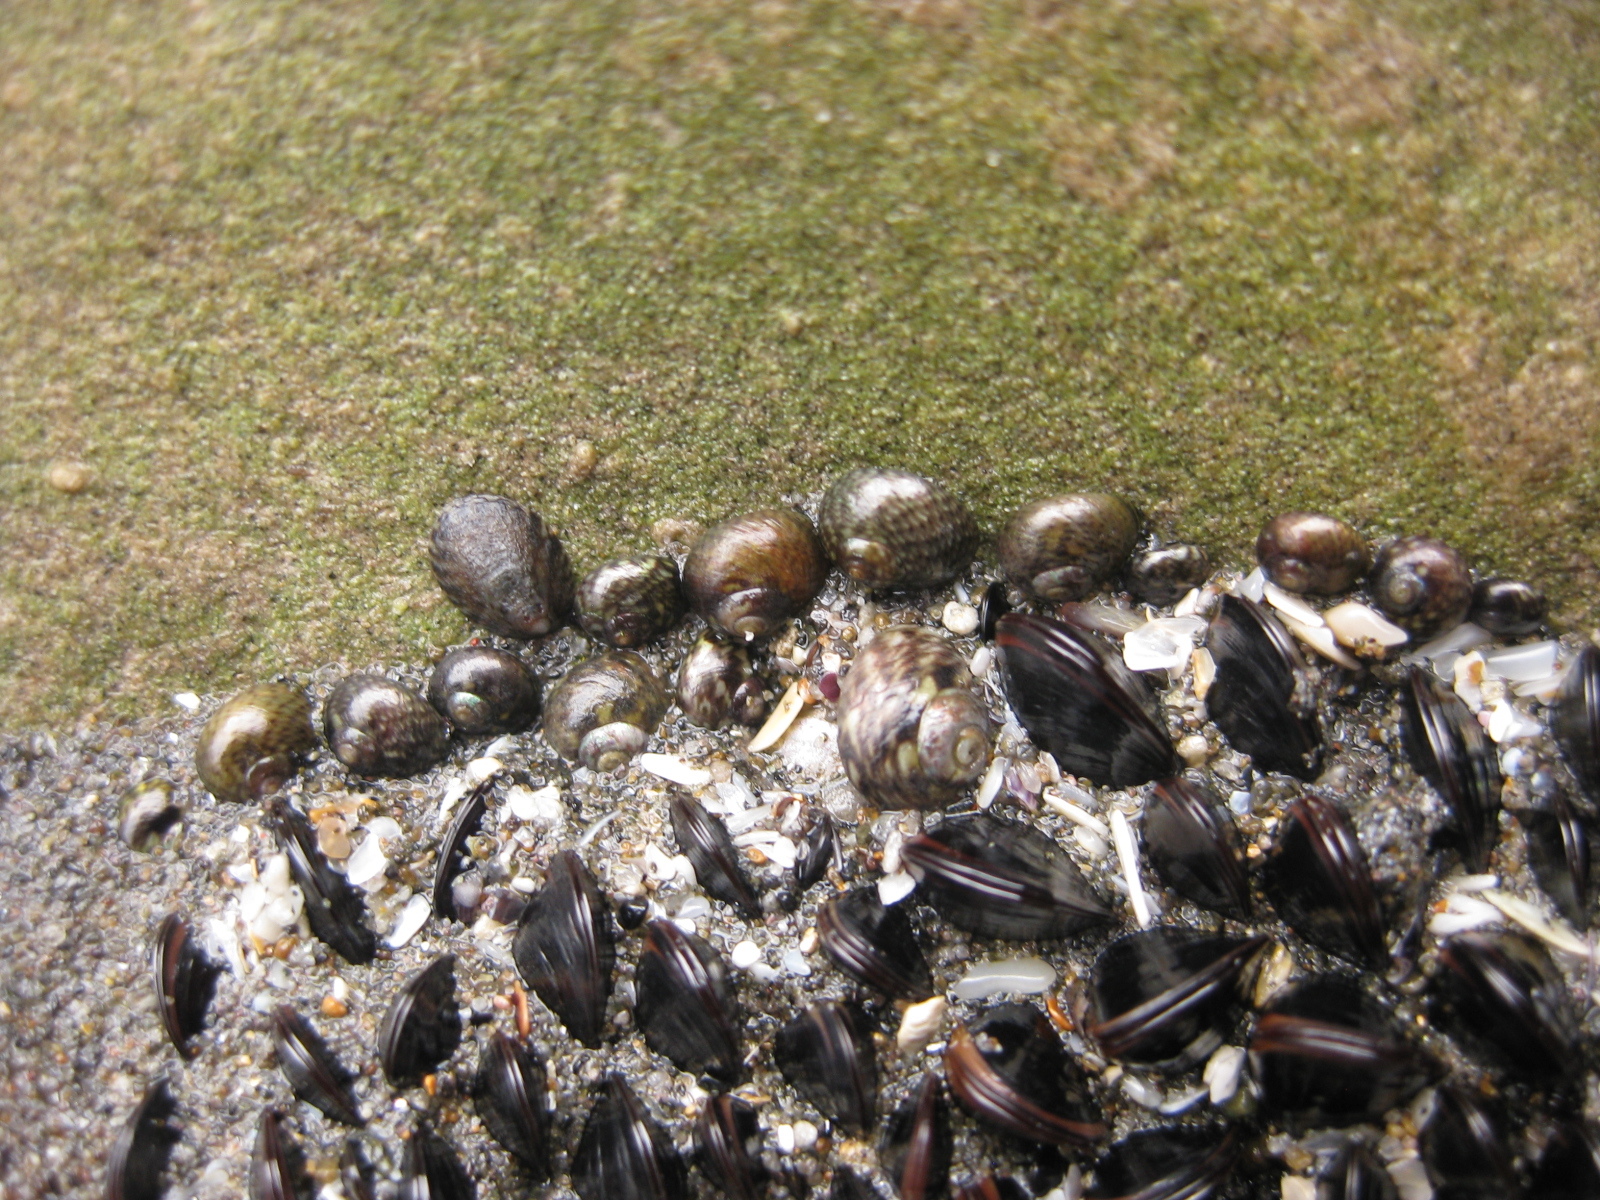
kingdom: Animalia
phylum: Mollusca
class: Bivalvia
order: Mytilida
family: Mytilidae
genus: Xenostrobus
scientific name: Xenostrobus neozelanicus
